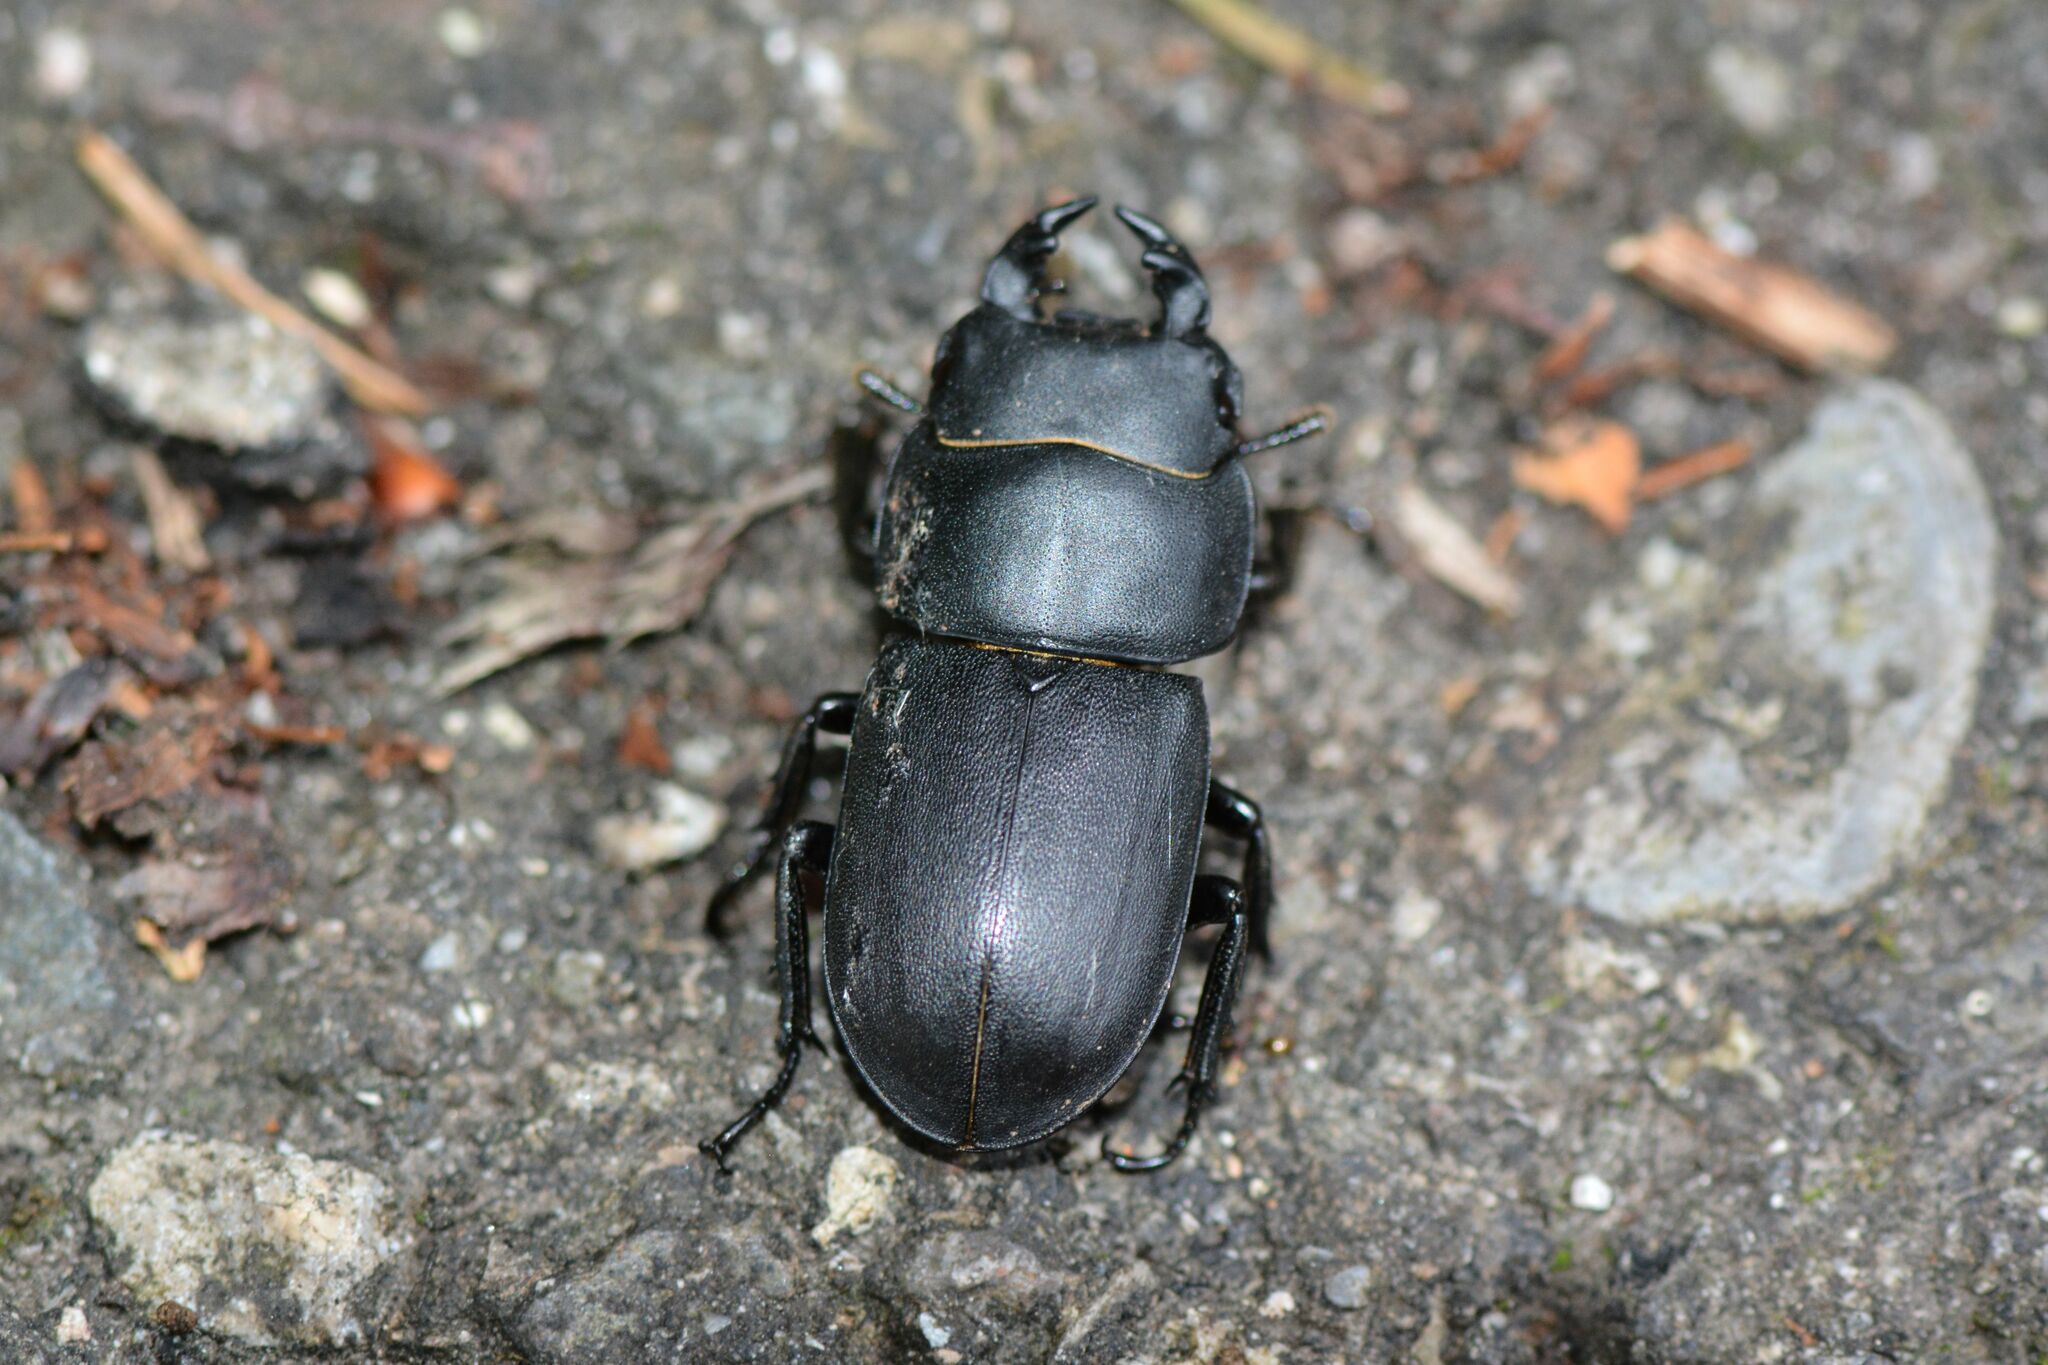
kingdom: Animalia
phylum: Arthropoda
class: Insecta
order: Coleoptera
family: Lucanidae
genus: Dorcus
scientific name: Dorcus parallelipipedus
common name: Lesser stag beetle
